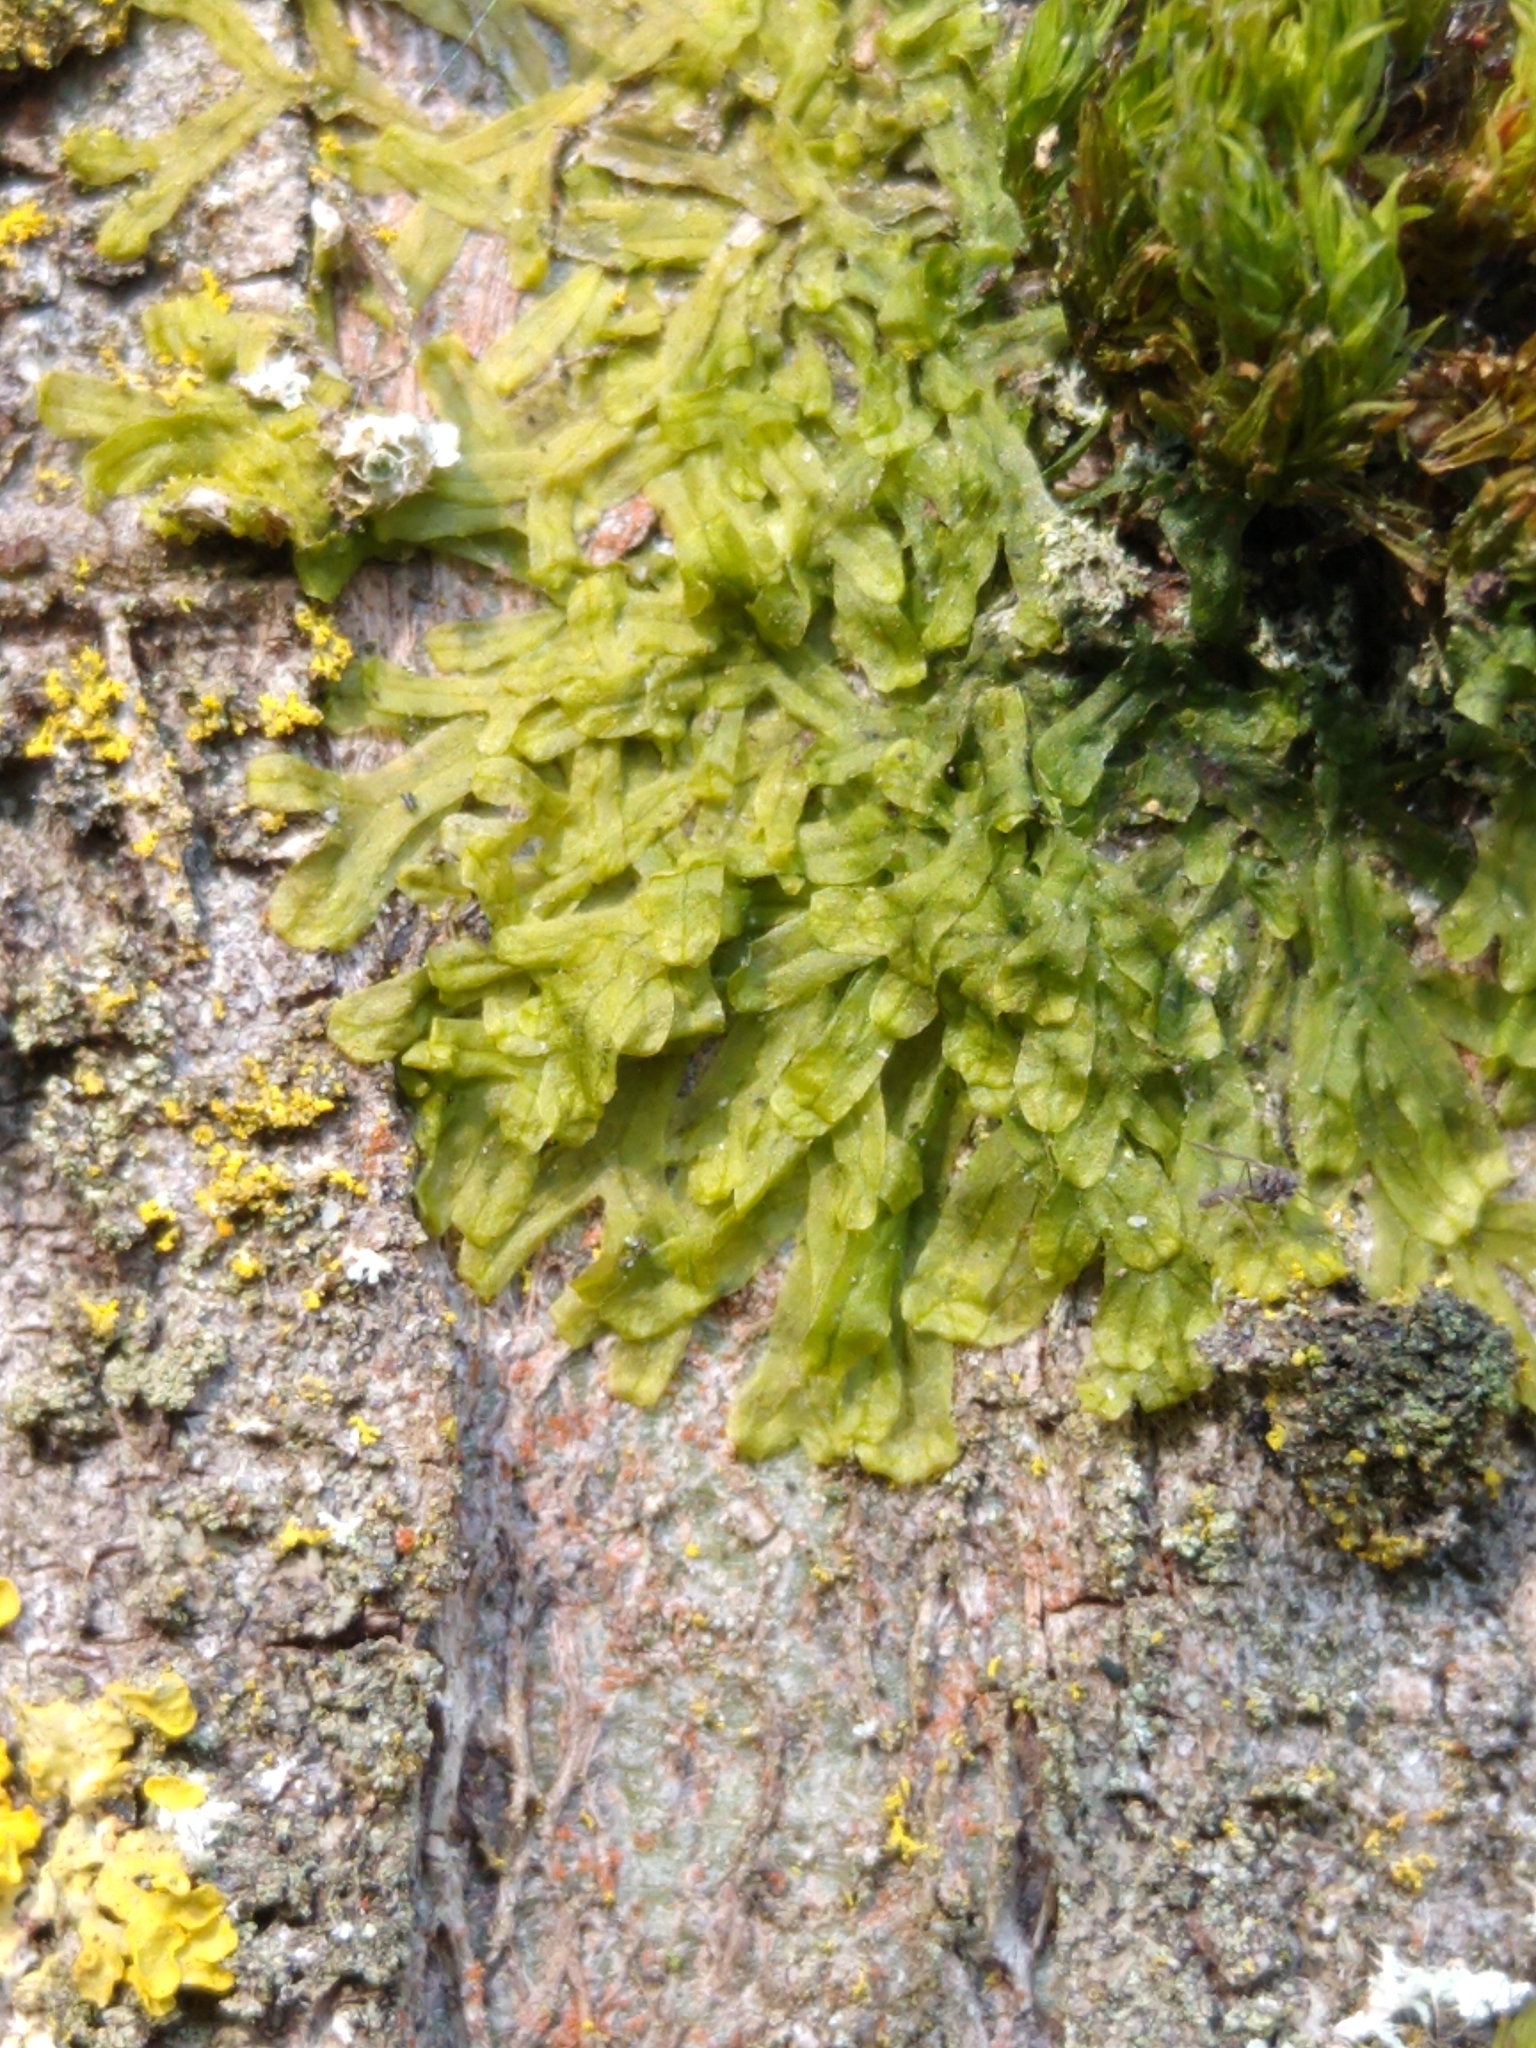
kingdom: Plantae
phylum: Marchantiophyta
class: Jungermanniopsida
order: Metzgeriales
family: Metzgeriaceae
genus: Metzgeria
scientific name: Metzgeria furcata
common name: Forked veilwort
